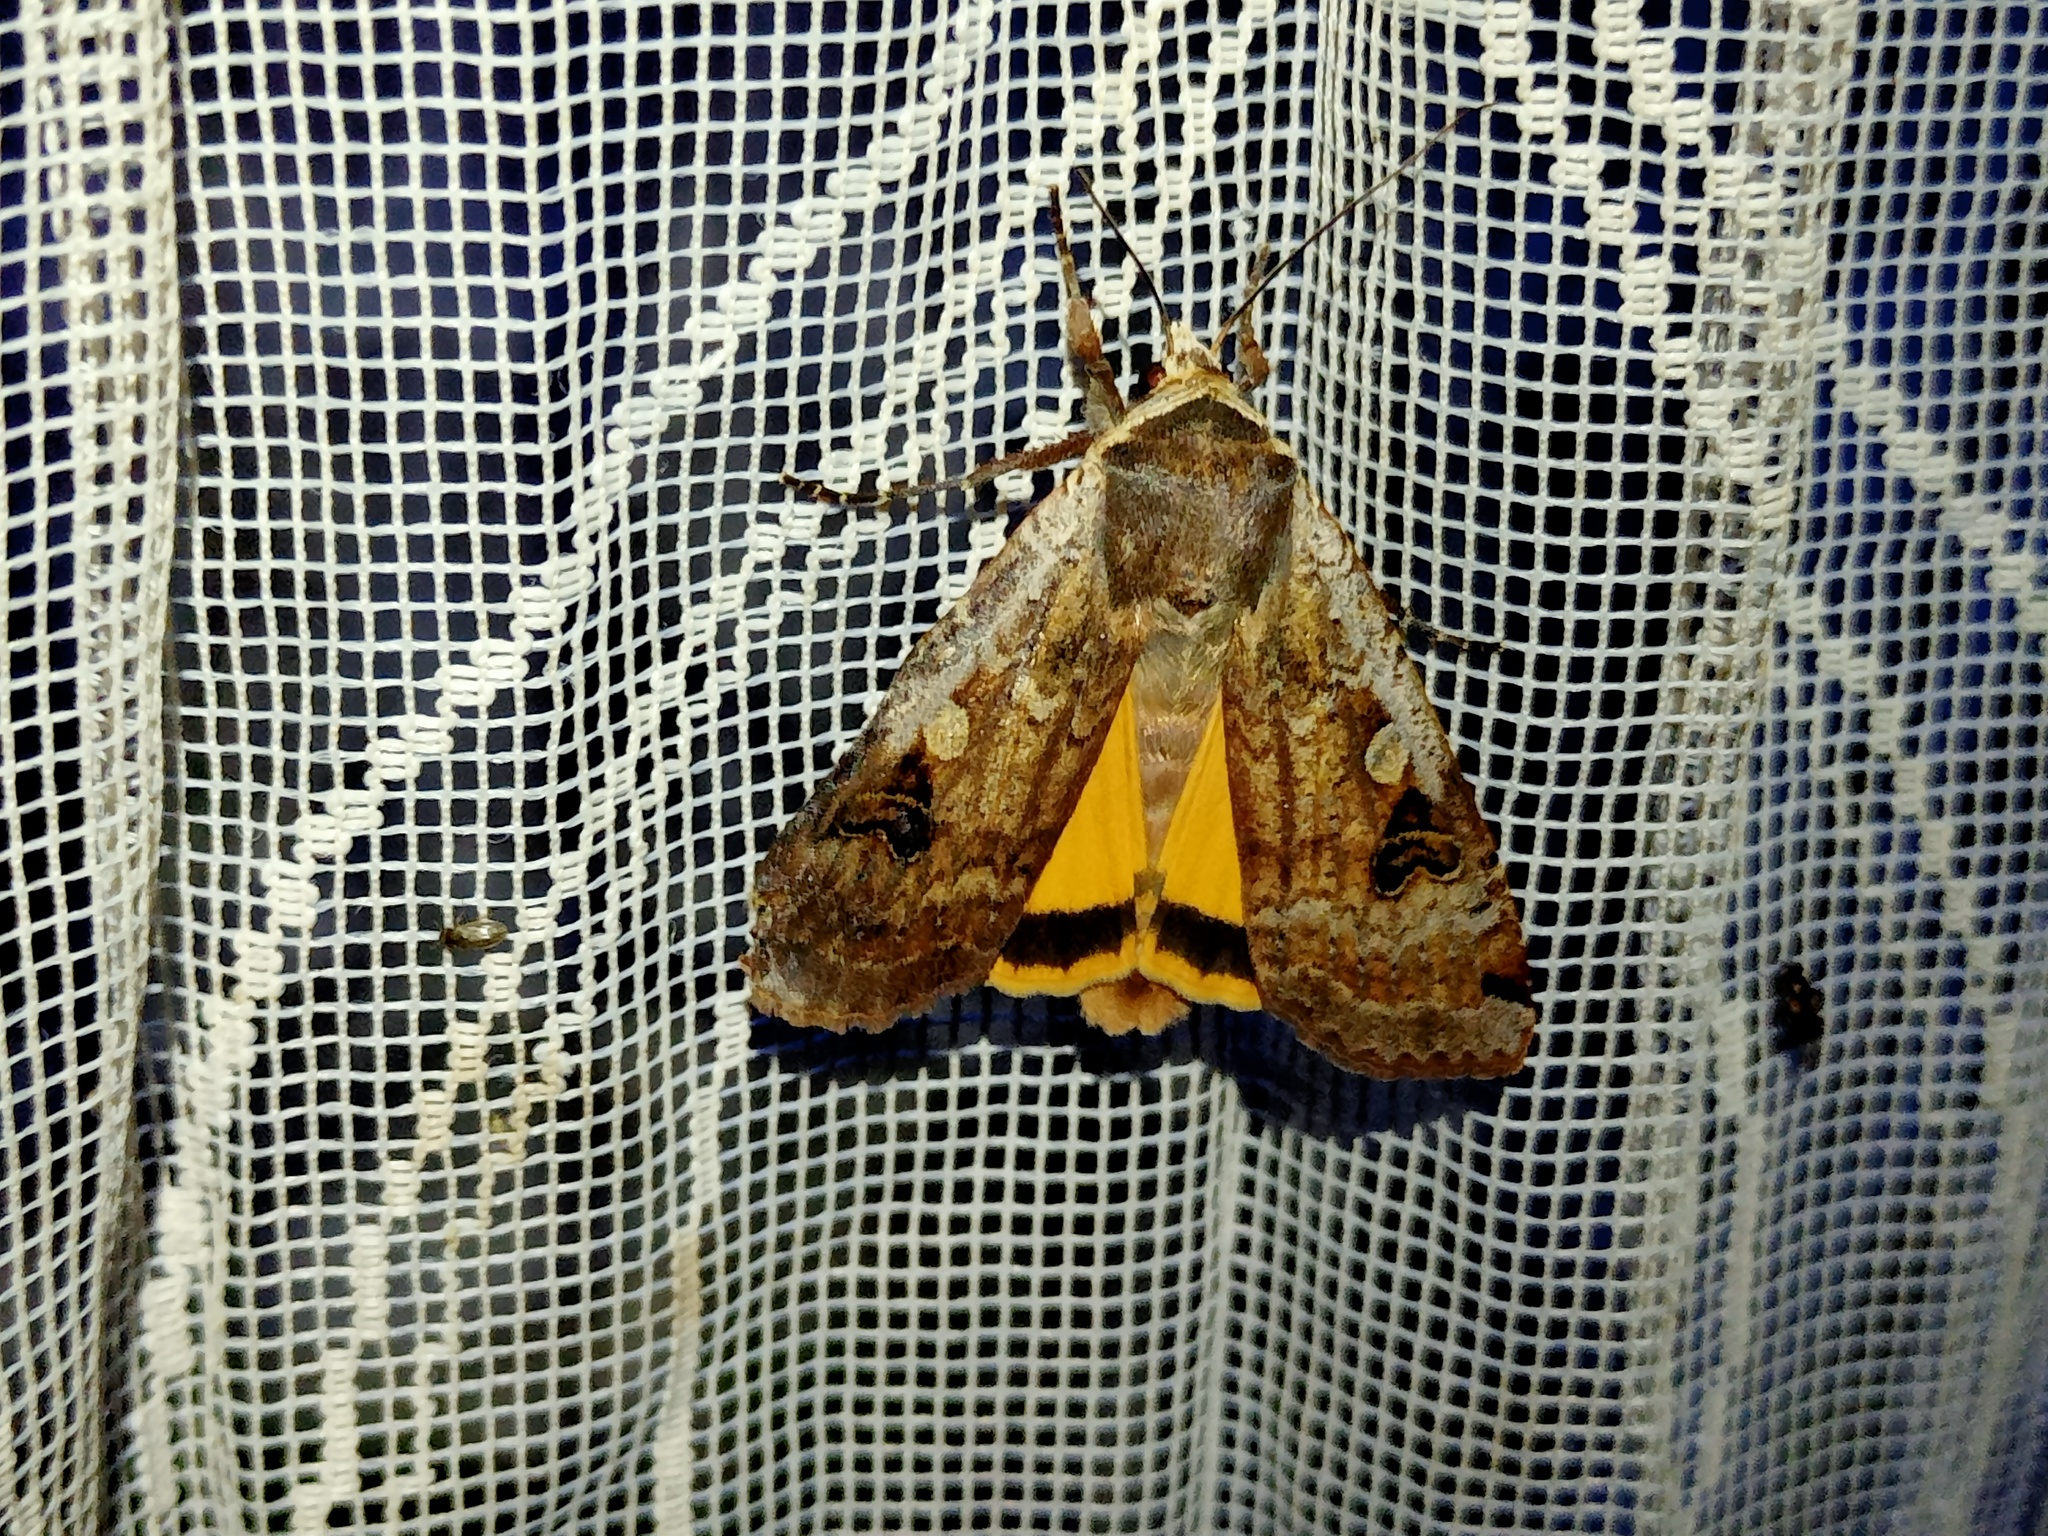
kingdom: Animalia
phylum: Arthropoda
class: Insecta
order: Lepidoptera
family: Noctuidae
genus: Noctua
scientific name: Noctua pronuba
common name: Large yellow underwing
